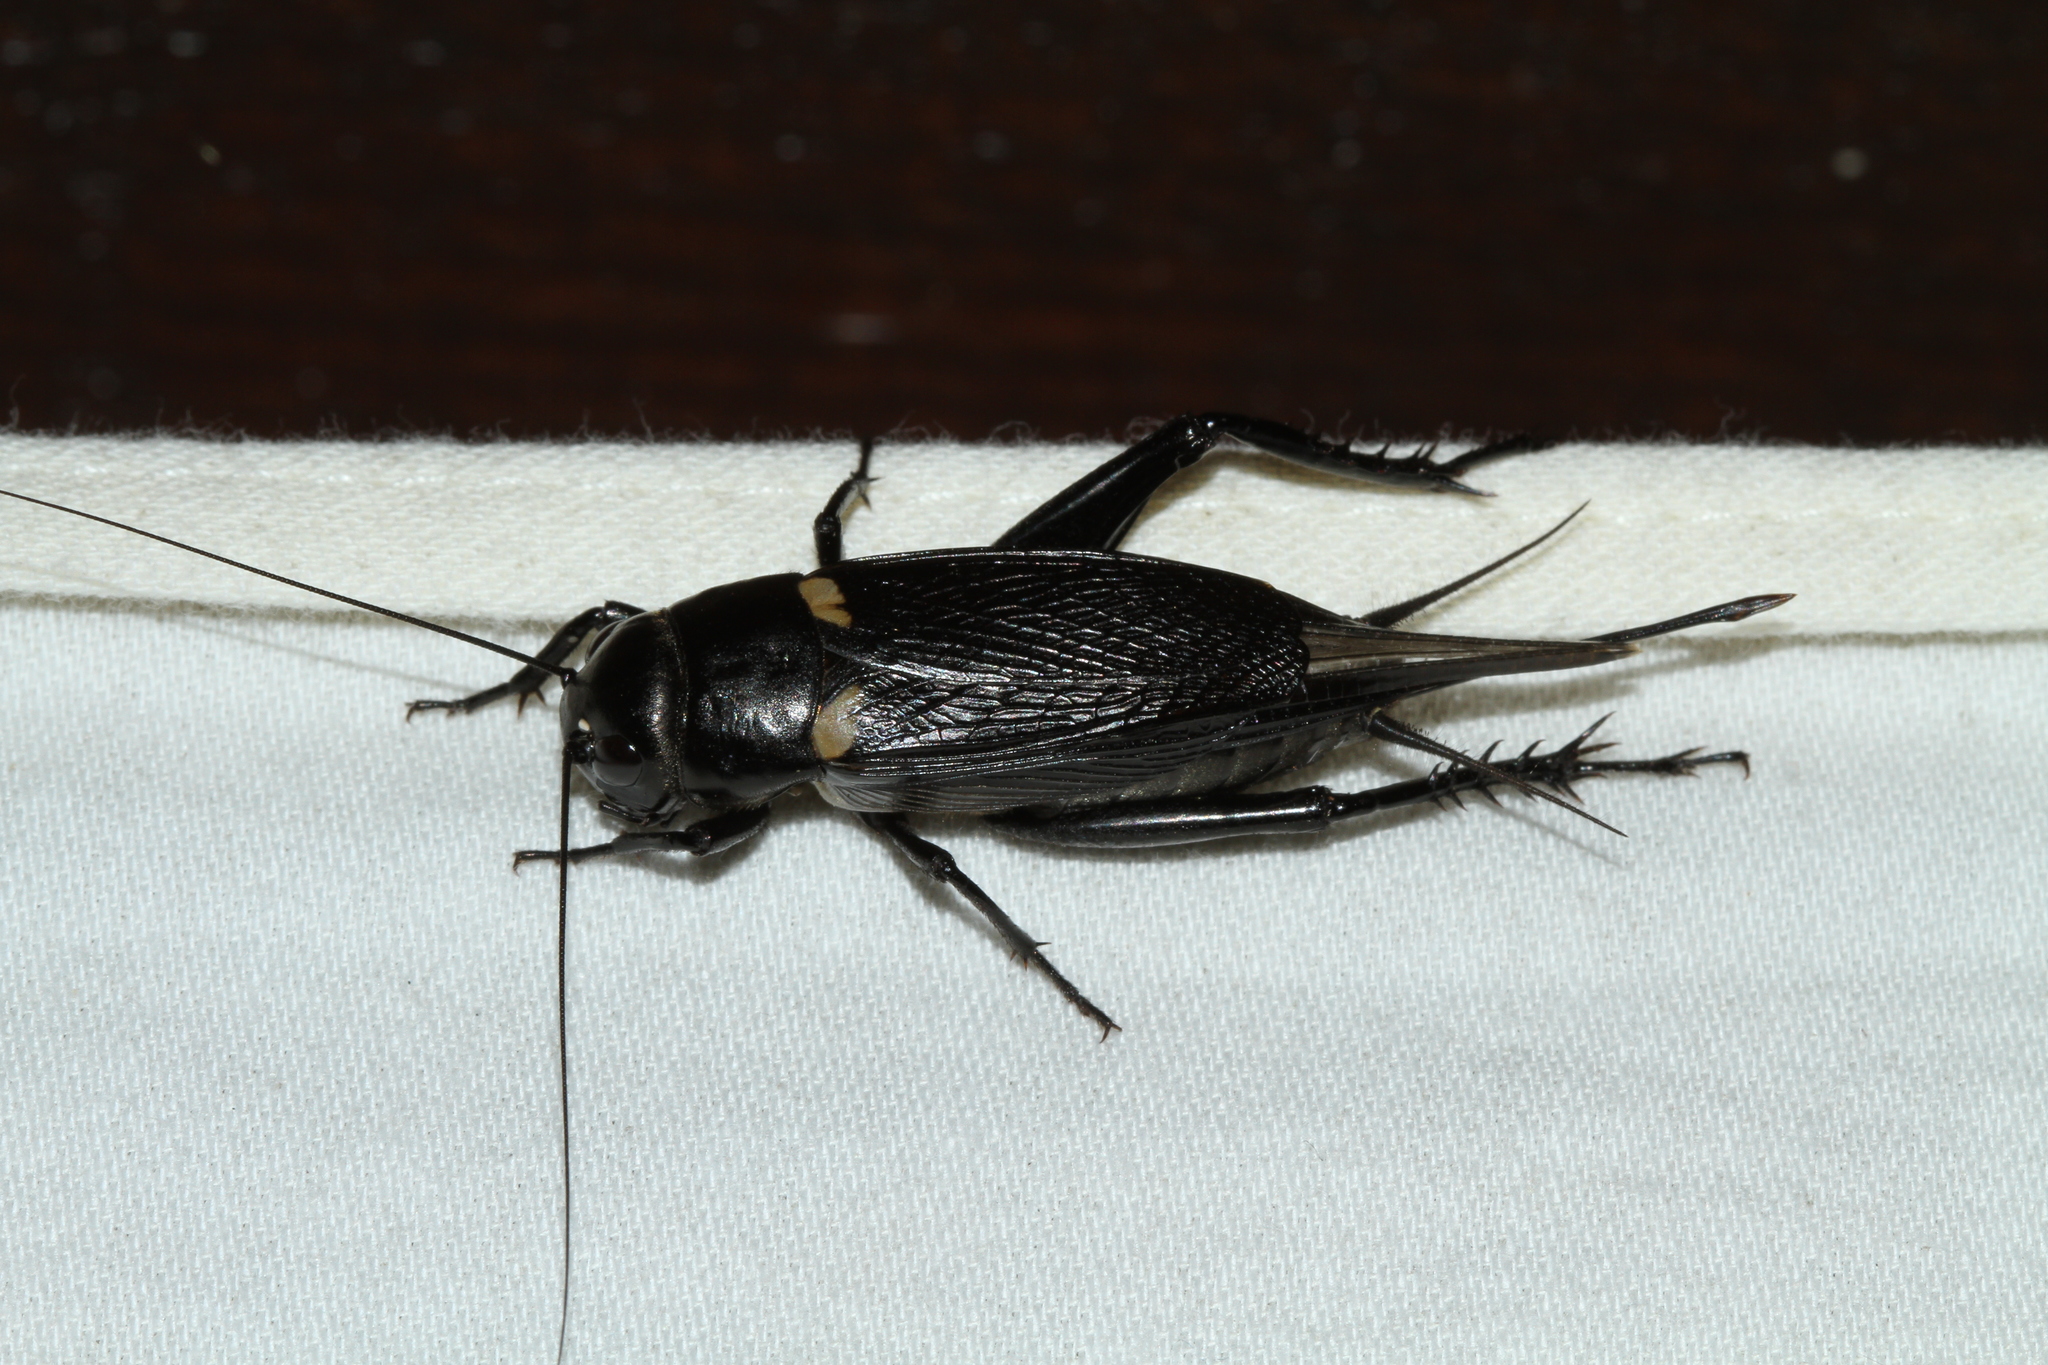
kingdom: Animalia
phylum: Arthropoda
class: Insecta
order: Orthoptera
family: Gryllidae
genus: Gryllus
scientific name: Gryllus bimaculatus
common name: Two-spotted cricket
